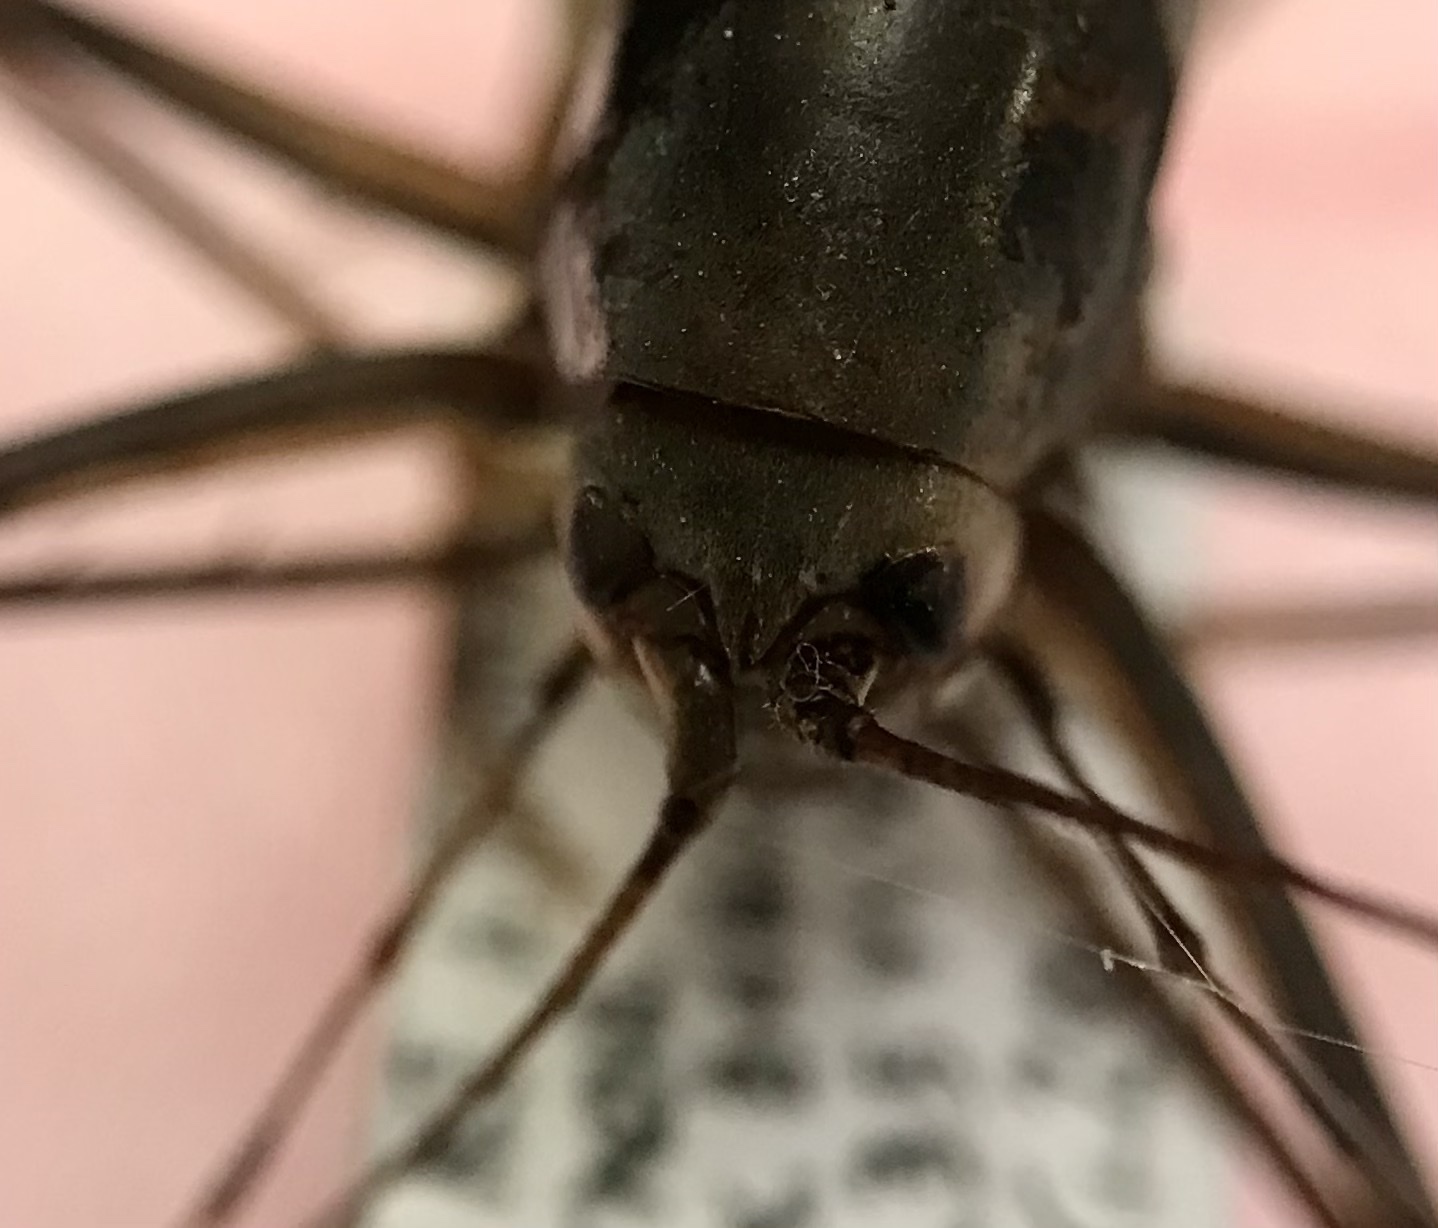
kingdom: Animalia
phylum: Arthropoda
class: Insecta
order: Orthoptera
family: Rhaphidophoridae
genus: Tachycines
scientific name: Tachycines asynamorus
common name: Greenhouse camel cricket
